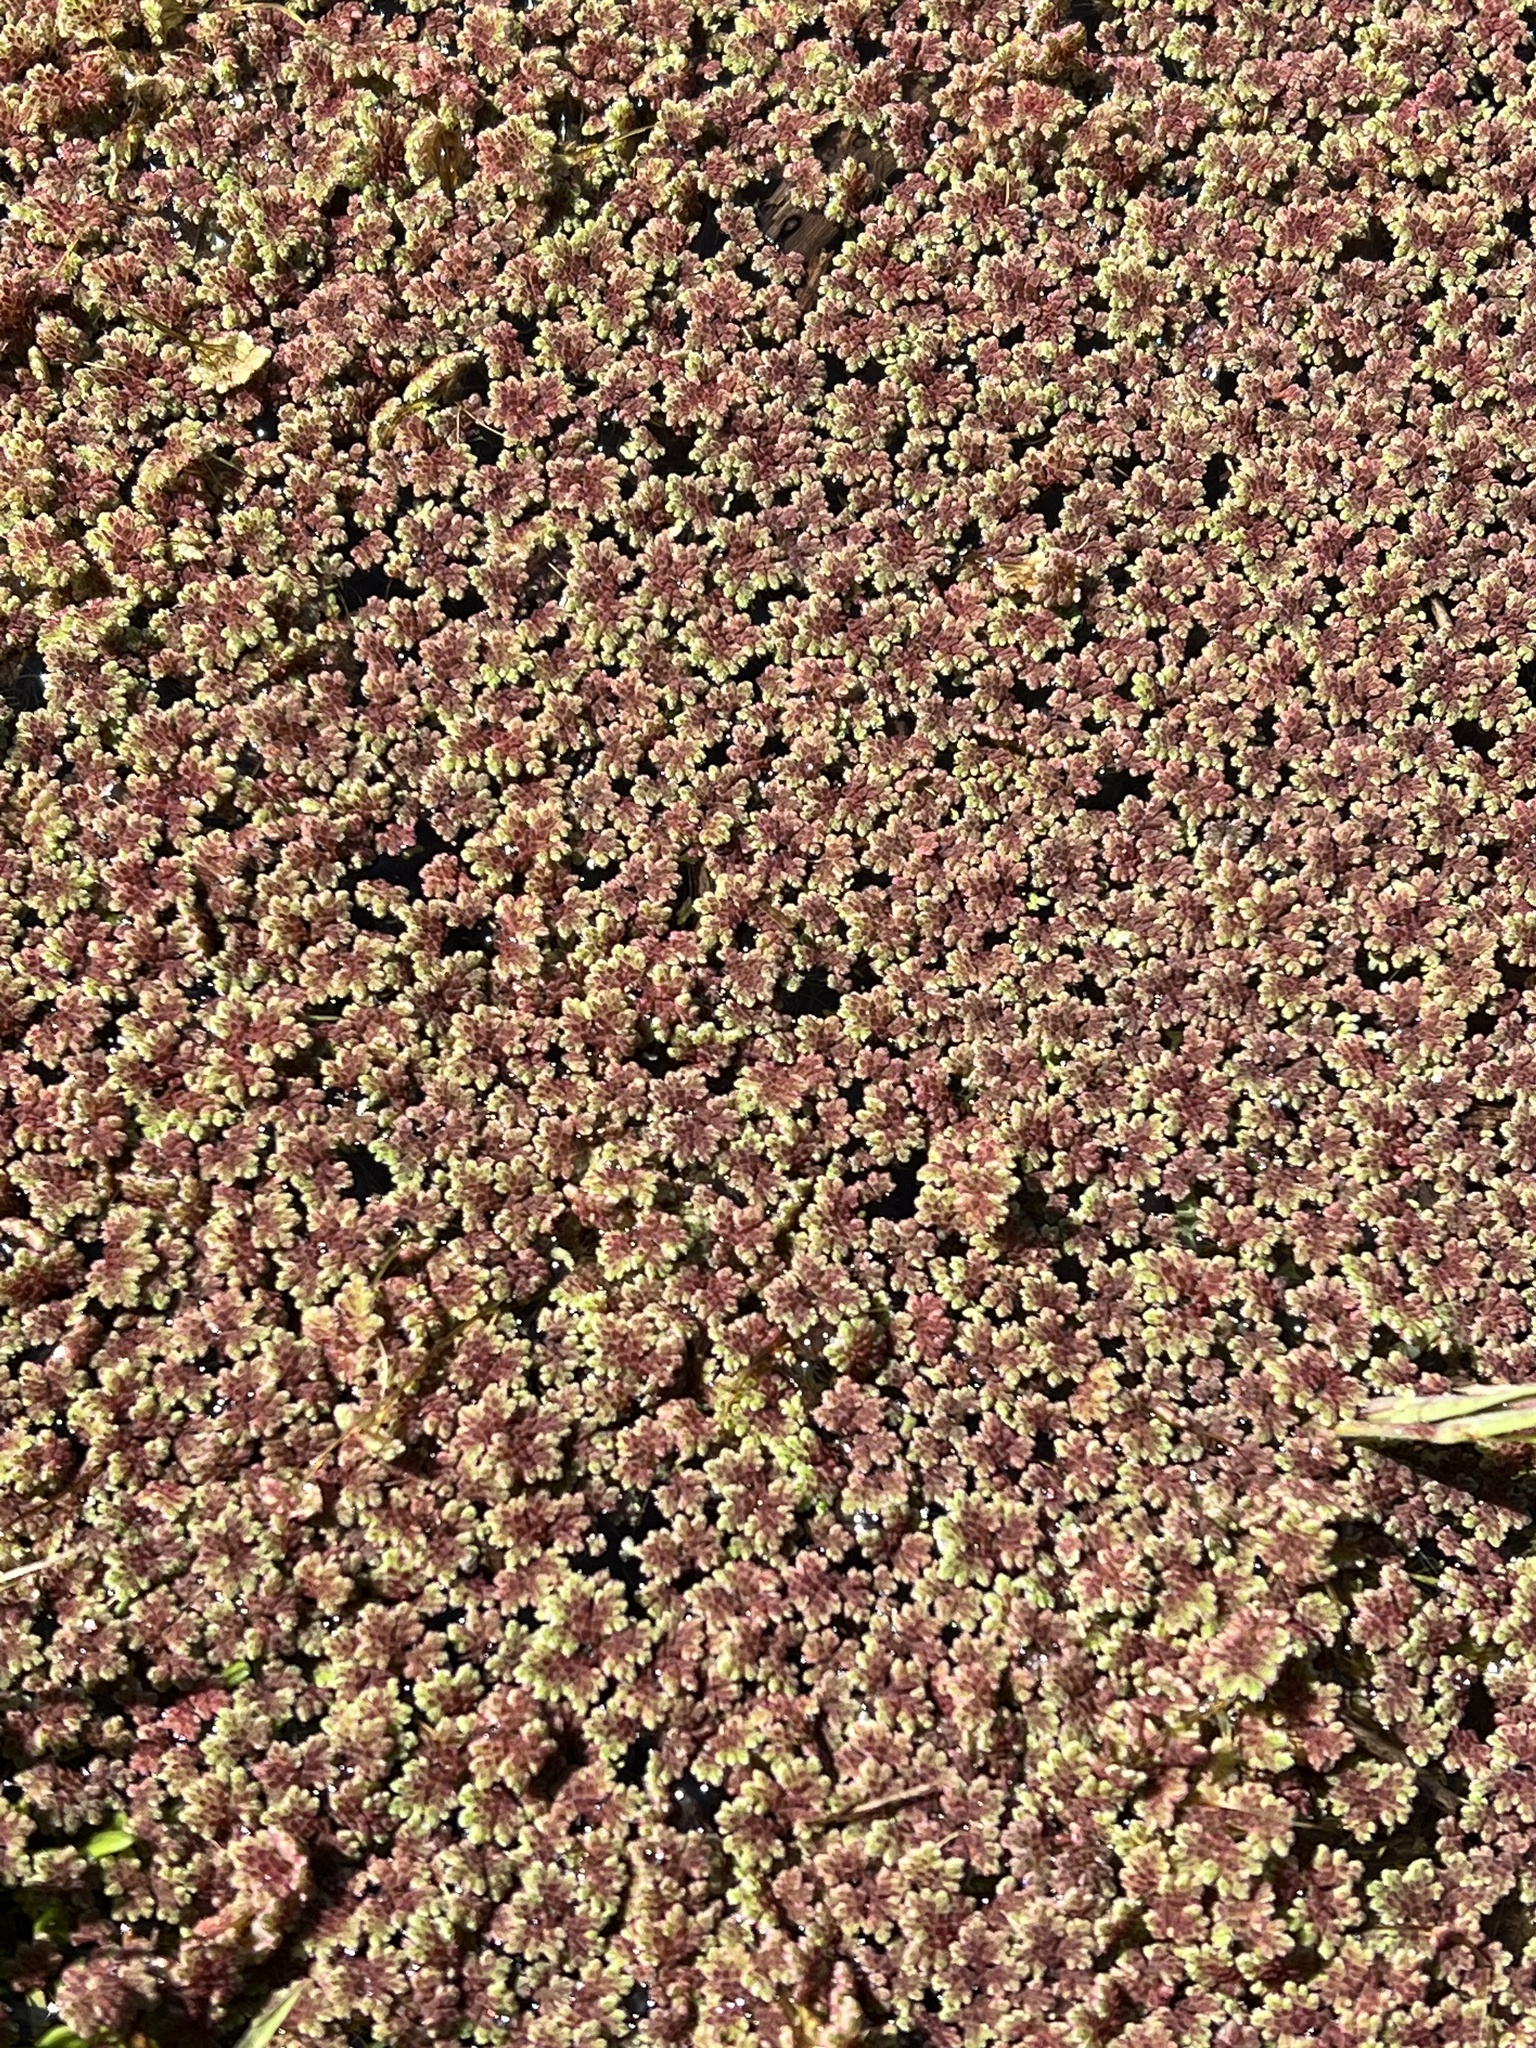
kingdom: Plantae
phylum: Tracheophyta
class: Polypodiopsida
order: Salviniales
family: Salviniaceae
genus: Azolla
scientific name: Azolla filiculoides
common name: Water fern
